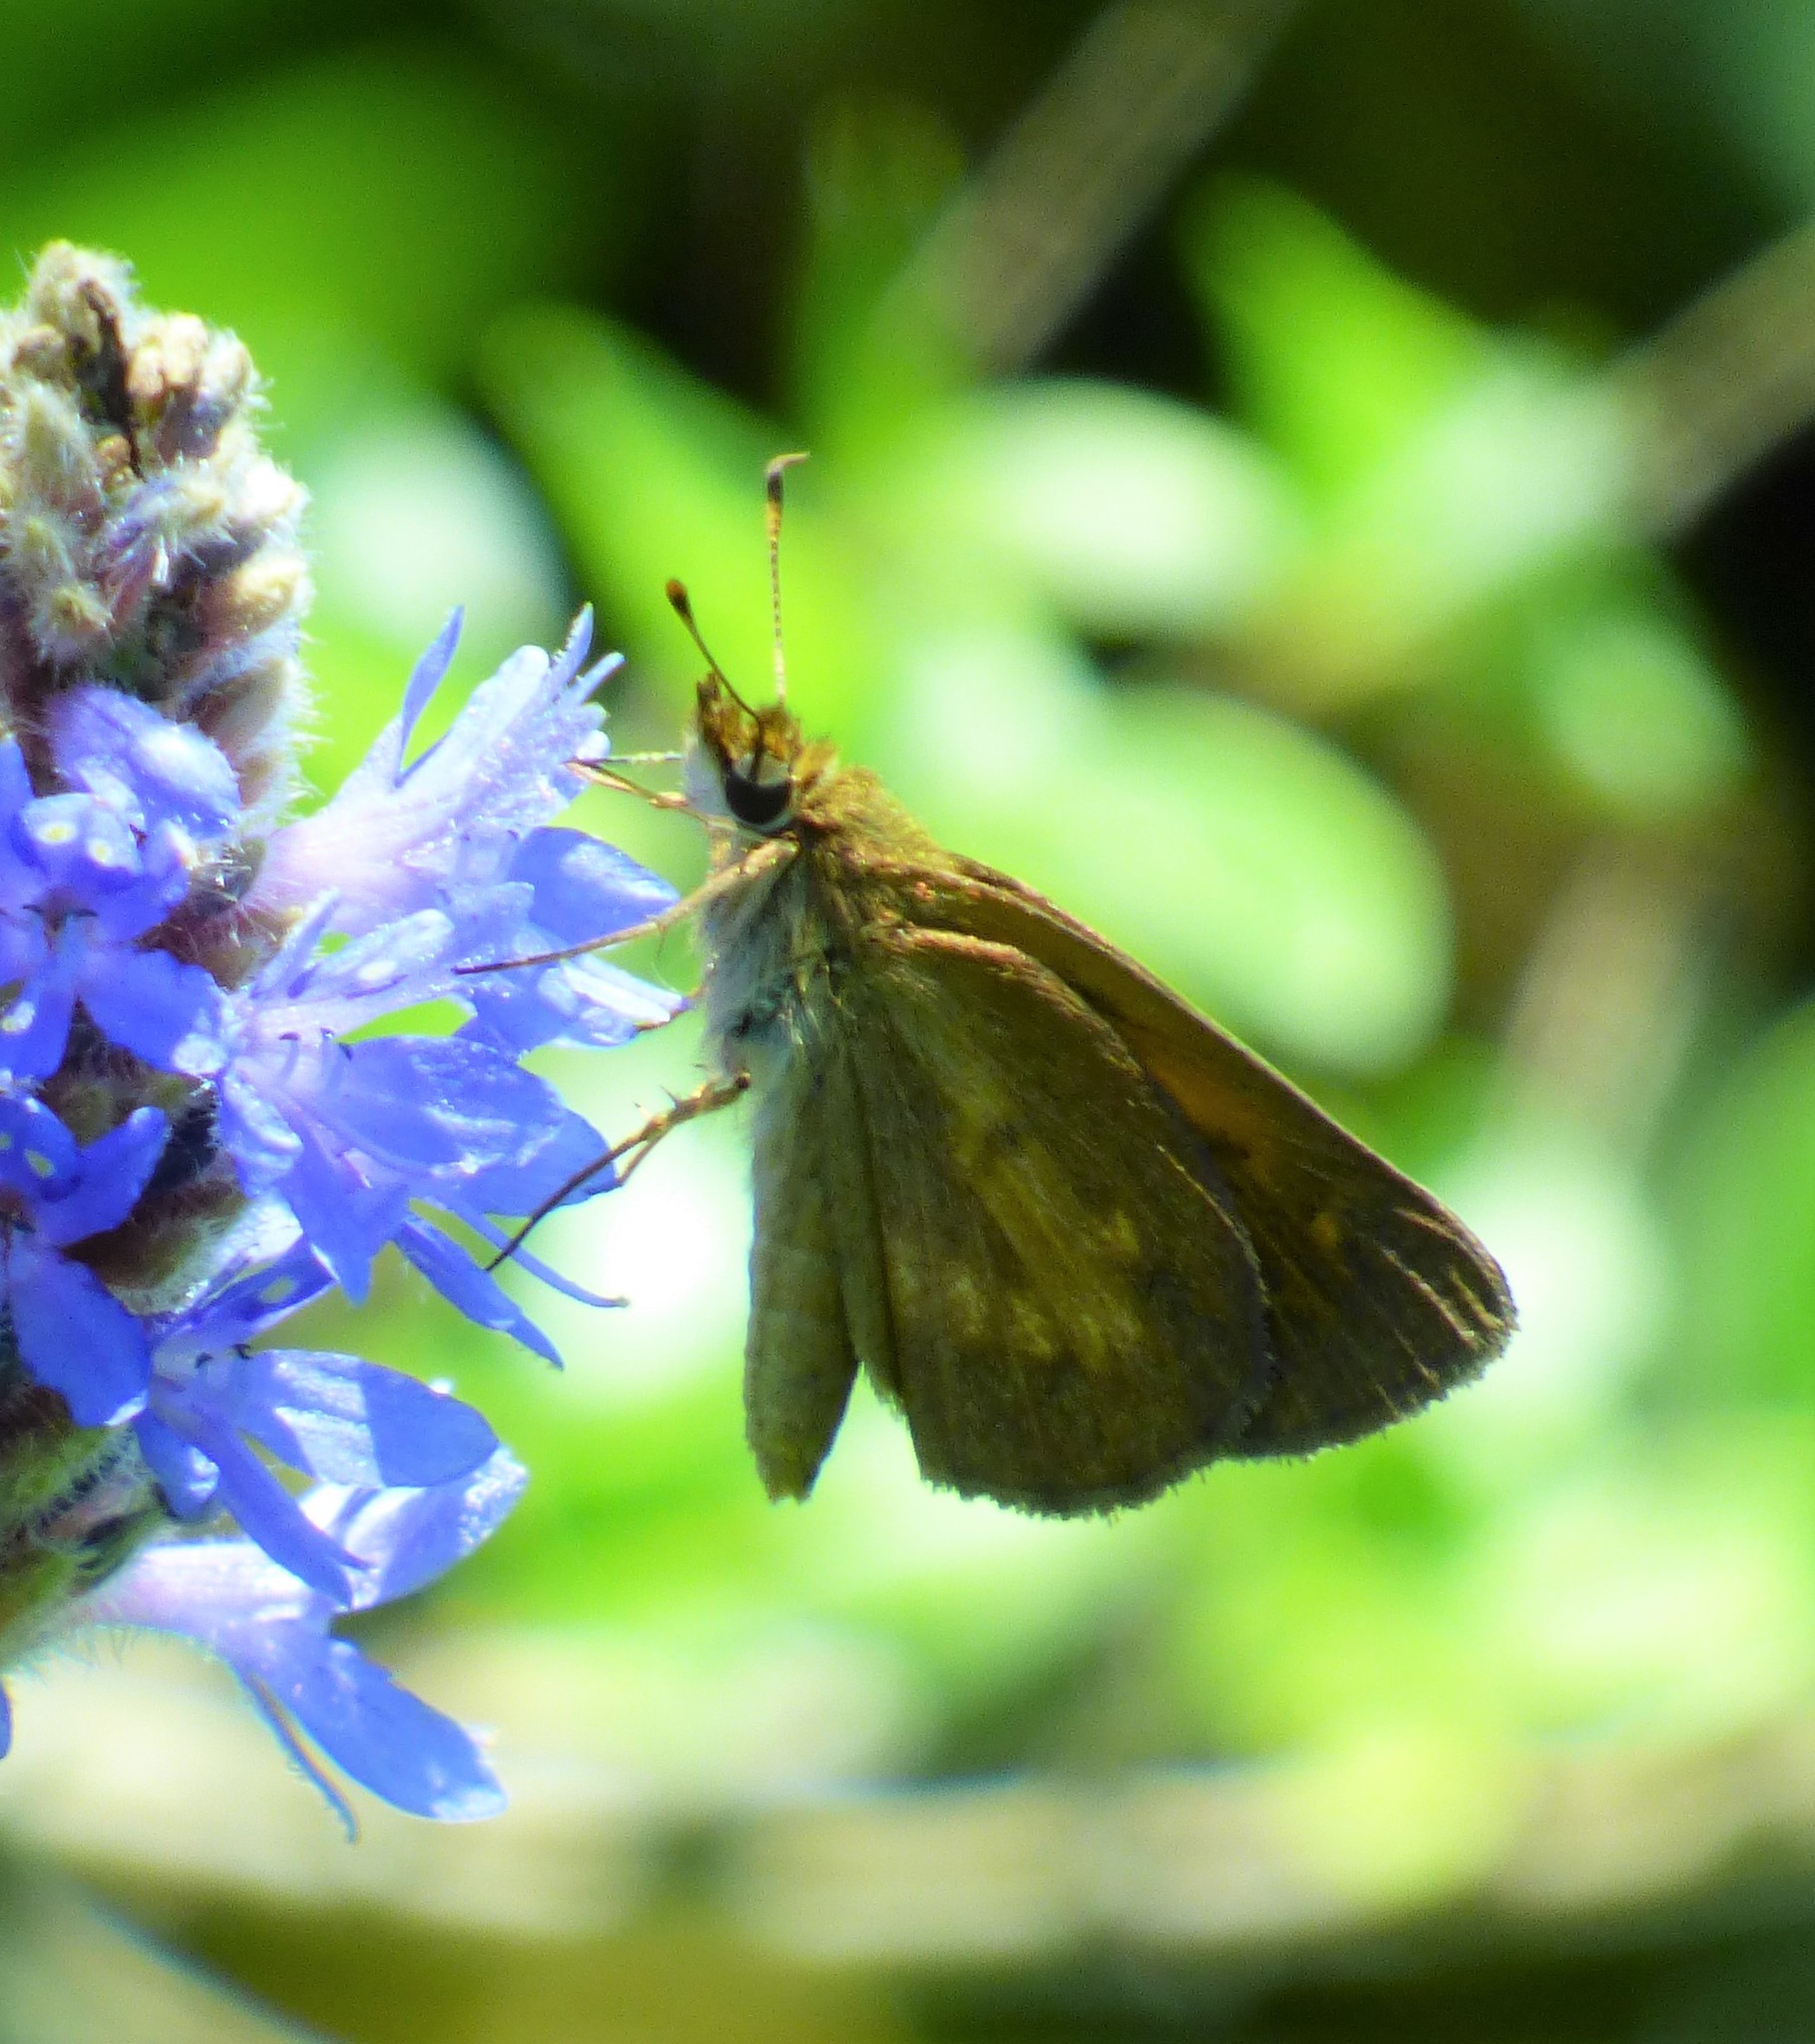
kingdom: Animalia
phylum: Arthropoda
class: Insecta
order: Lepidoptera
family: Hesperiidae
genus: Poanes
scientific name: Poanes viator
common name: Broad-winged skipper
